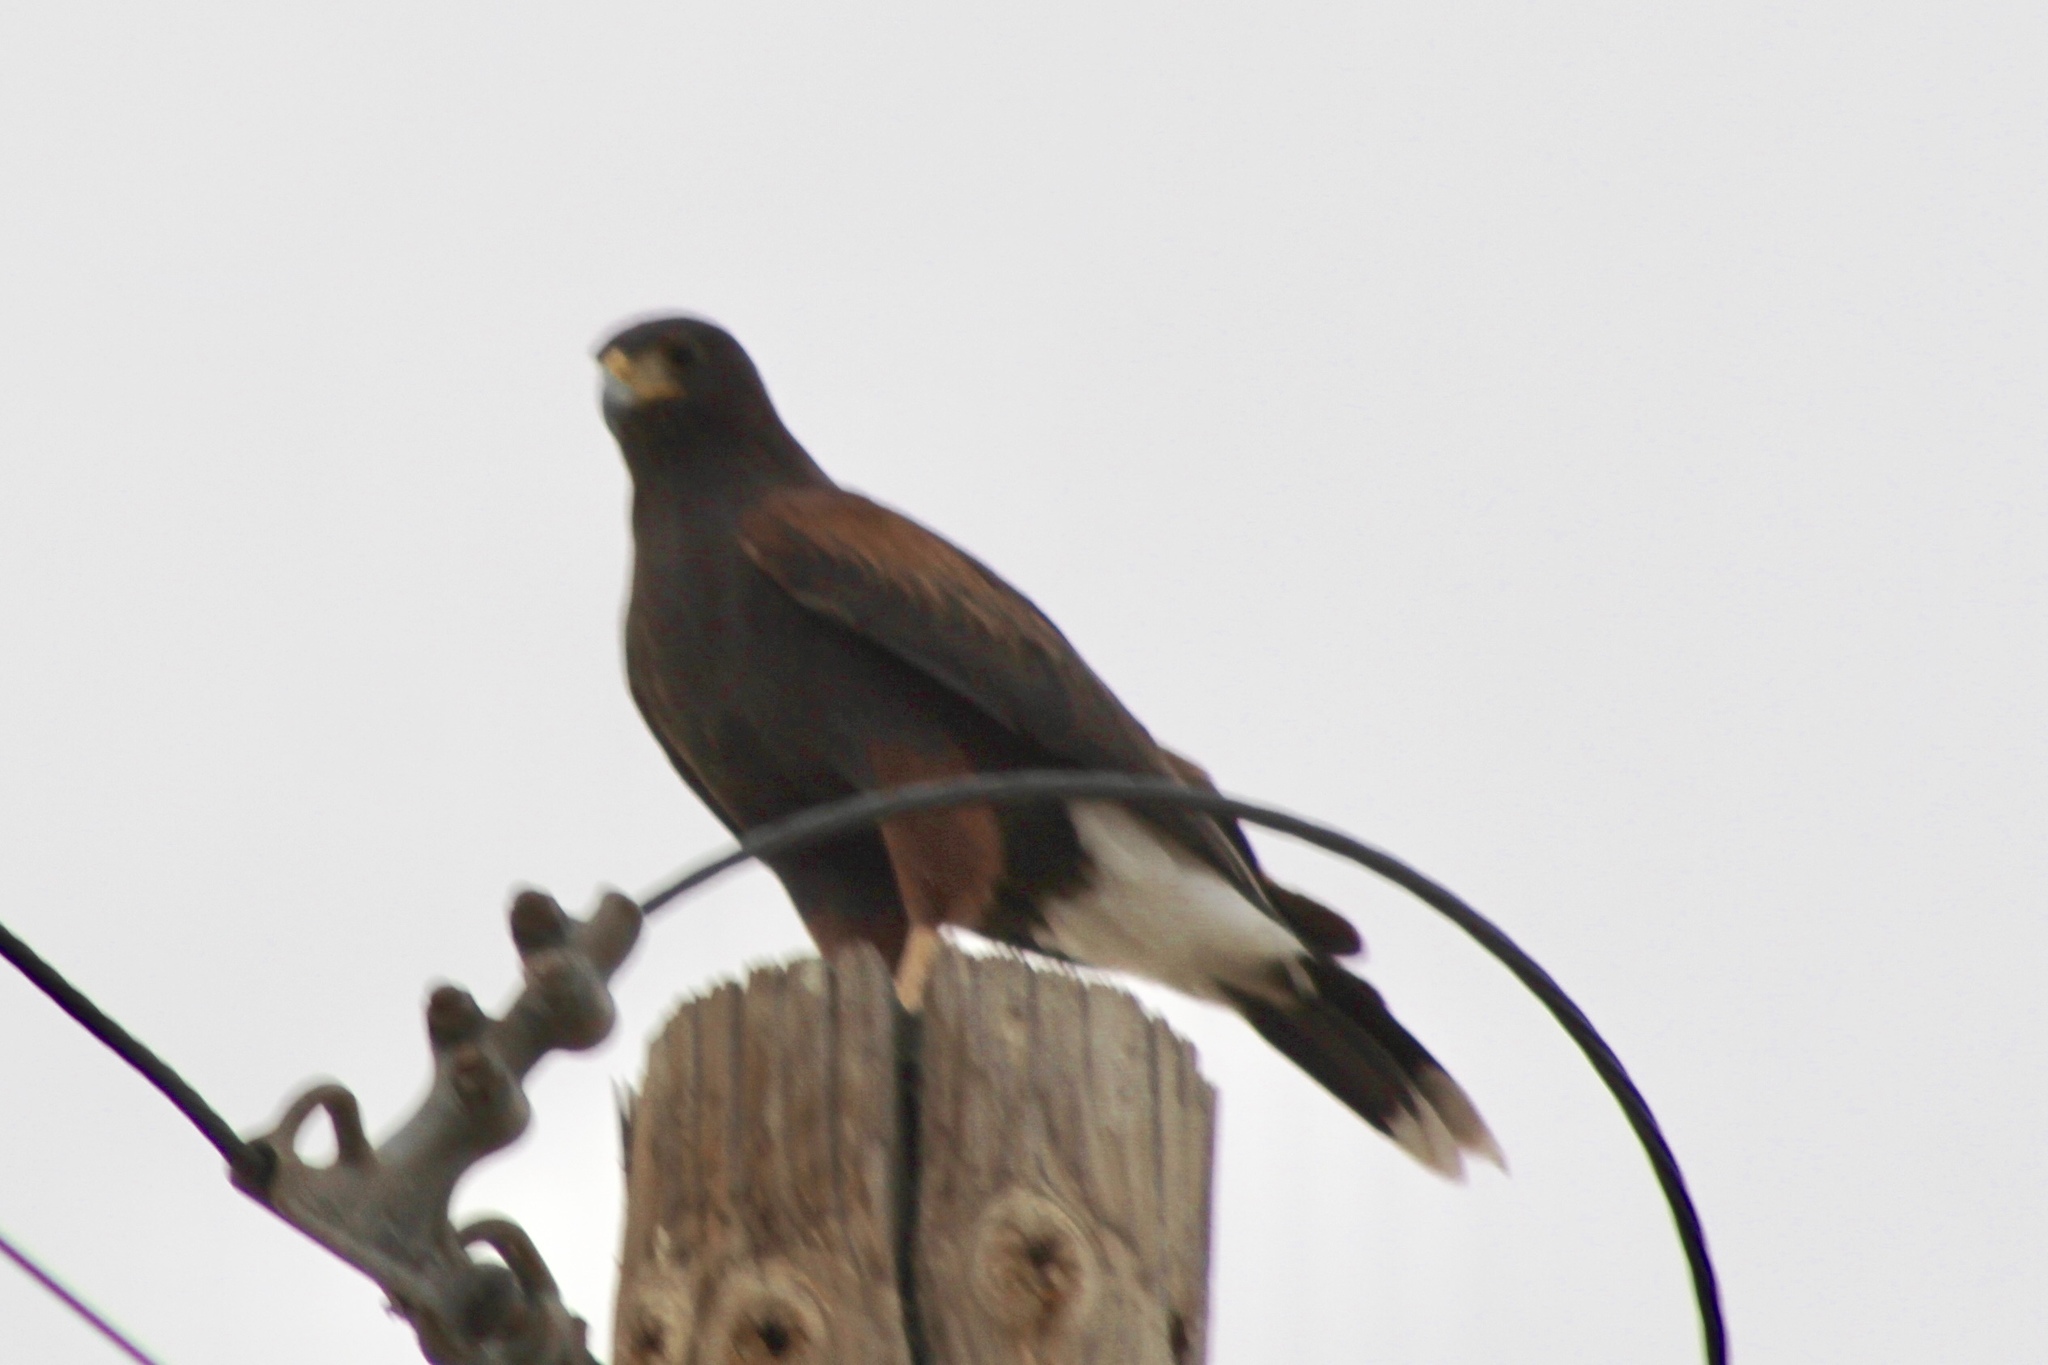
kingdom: Animalia
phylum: Chordata
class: Aves
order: Accipitriformes
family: Accipitridae
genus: Parabuteo
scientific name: Parabuteo unicinctus
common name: Harris's hawk
